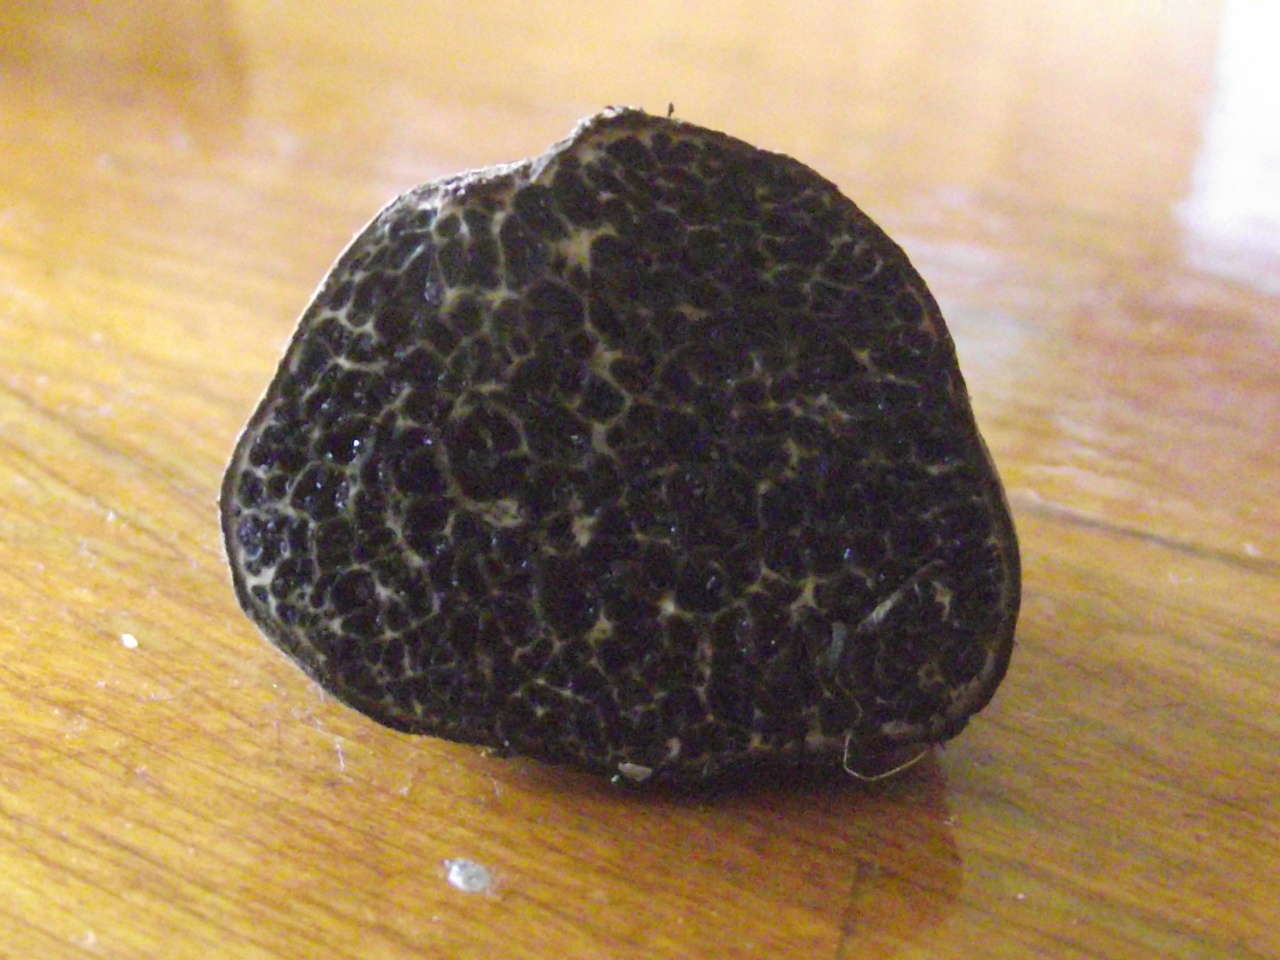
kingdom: Fungi
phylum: Basidiomycota
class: Agaricomycetes
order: Boletales
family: Paxillaceae
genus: Melanogaster
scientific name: Melanogaster ambiguus
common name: Stinking slime truffle
